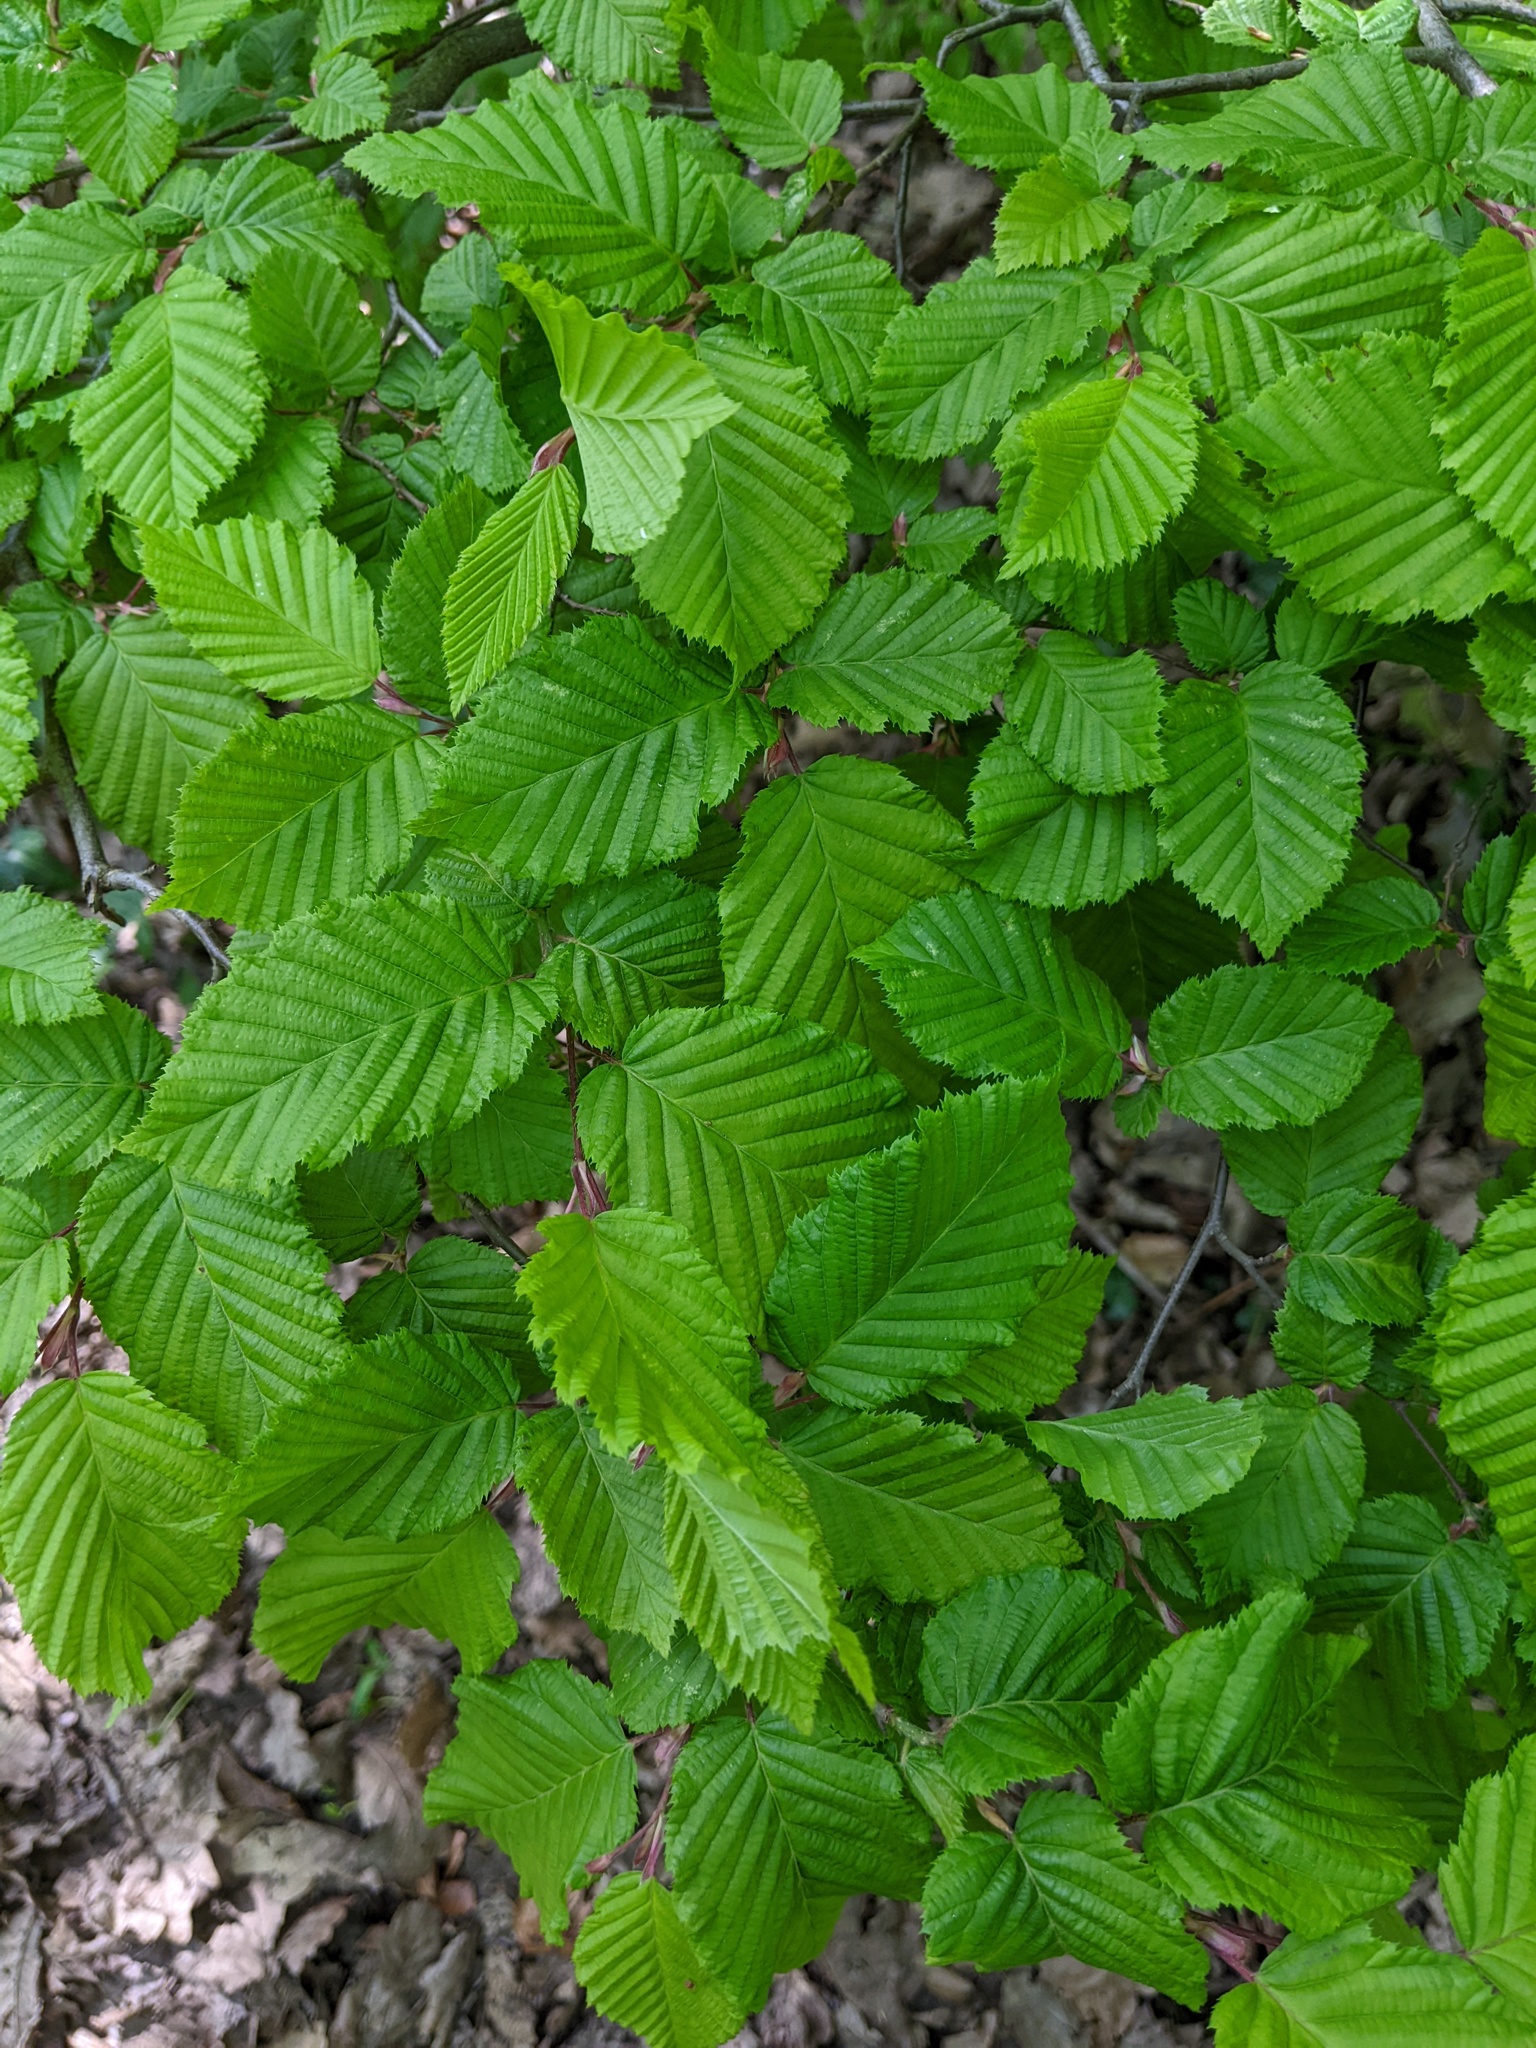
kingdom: Plantae
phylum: Tracheophyta
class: Magnoliopsida
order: Fagales
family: Betulaceae
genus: Carpinus
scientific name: Carpinus betulus
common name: Hornbeam
